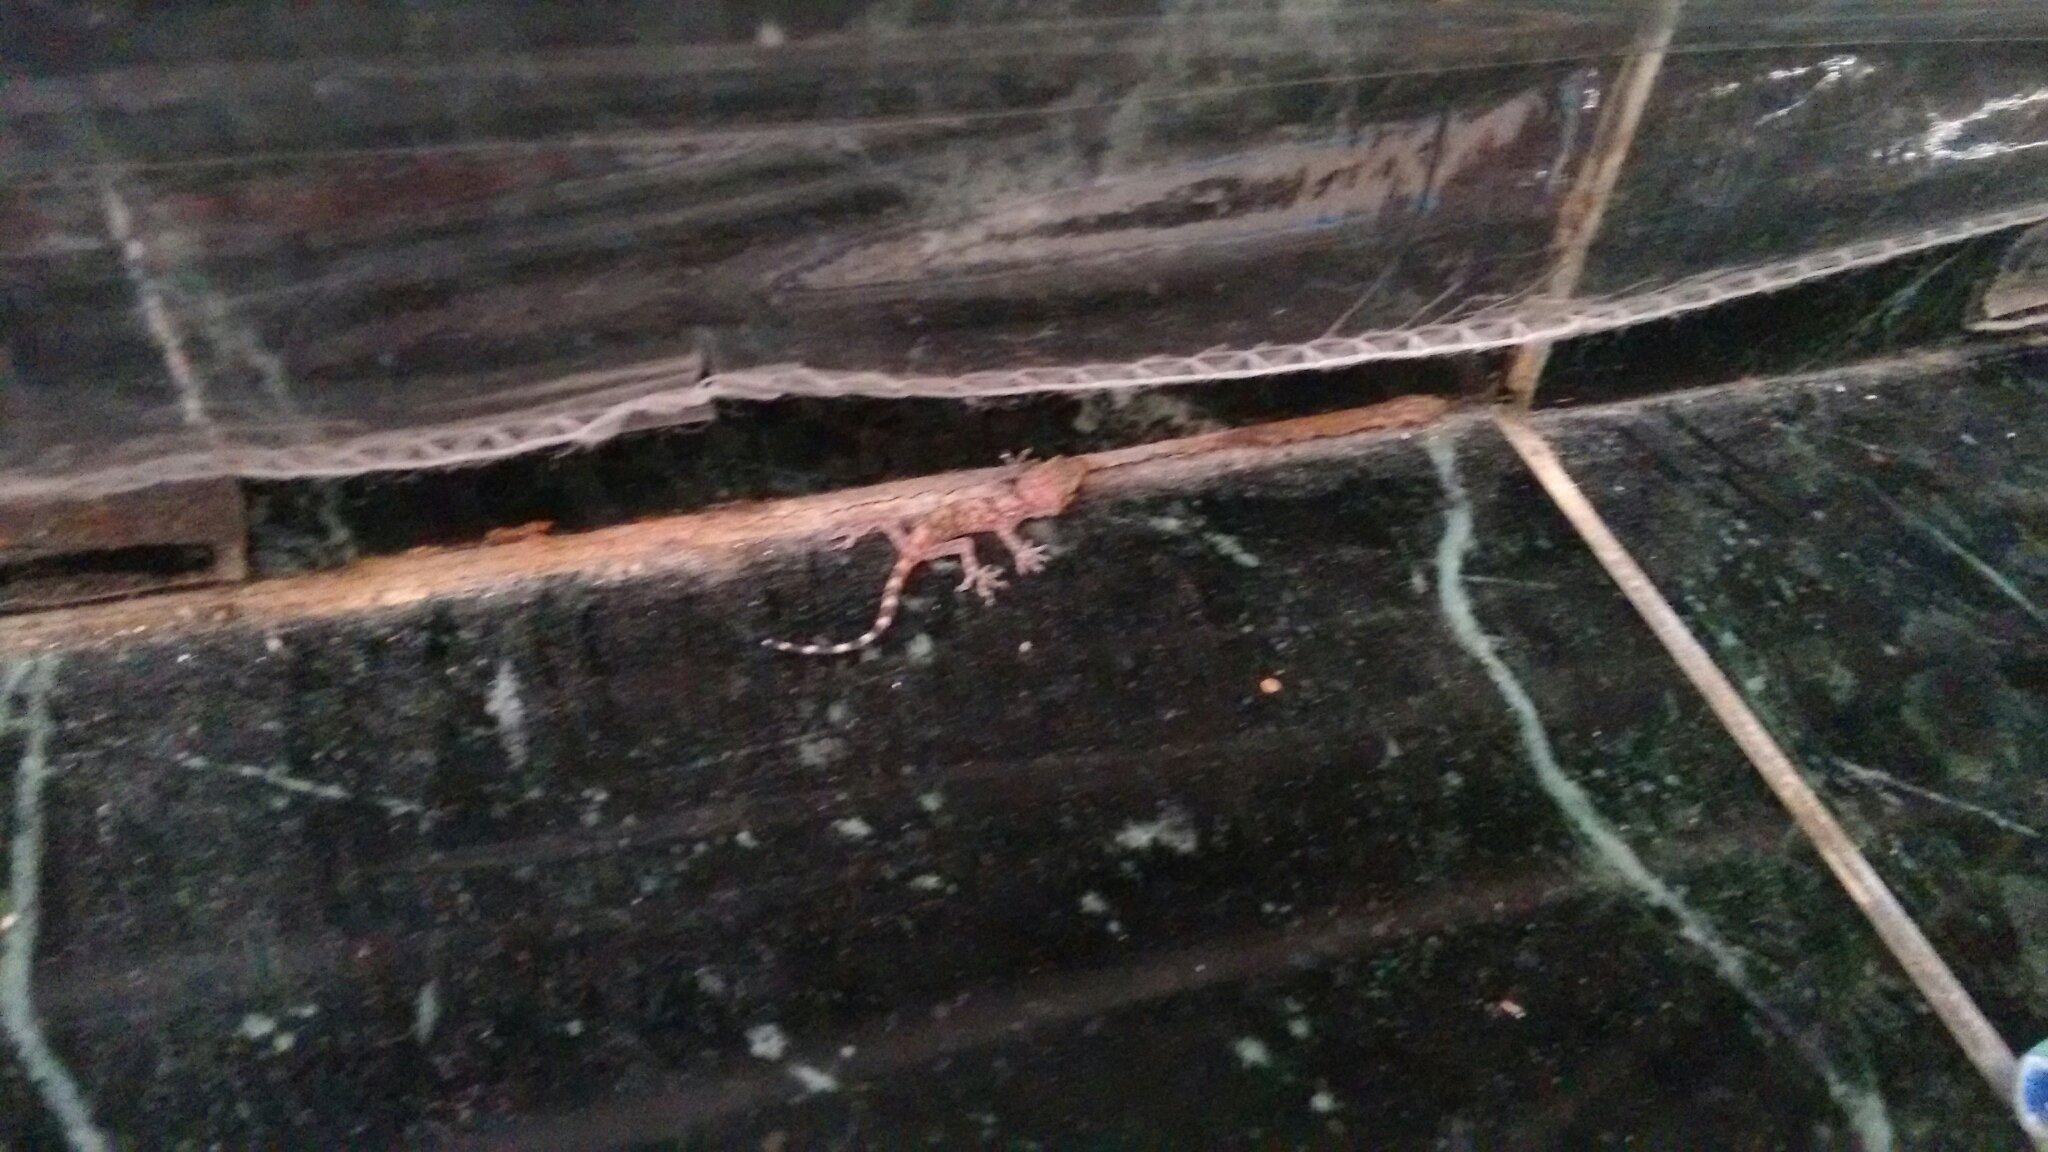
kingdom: Animalia
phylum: Chordata
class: Squamata
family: Gekkonidae
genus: Hemidactylus
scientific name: Hemidactylus turcicus
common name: Turkish gecko
